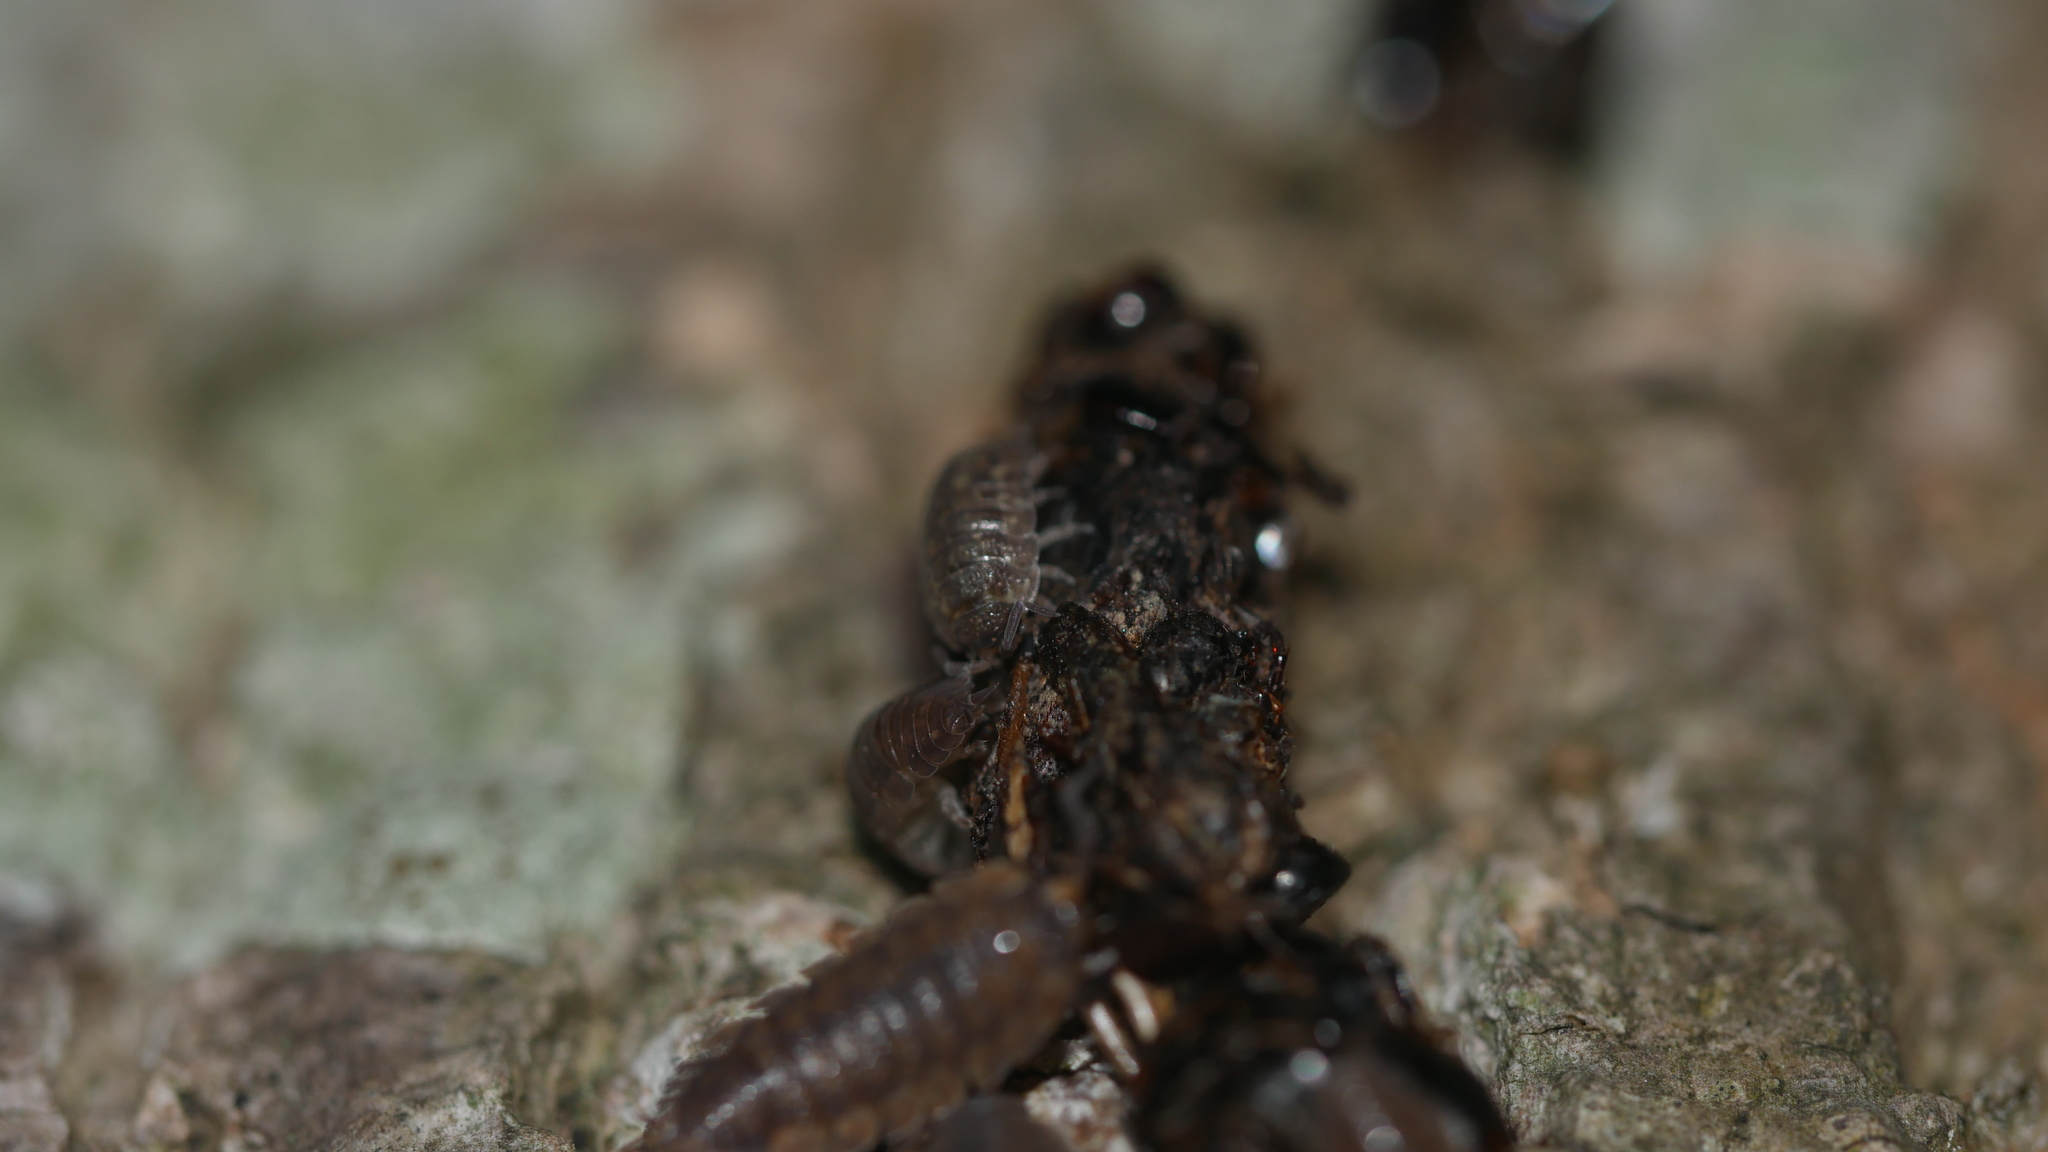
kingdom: Animalia
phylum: Arthropoda
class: Malacostraca
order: Isopoda
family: Porcellionidae
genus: Porcellio
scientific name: Porcellio scaber
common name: Common rough woodlouse
